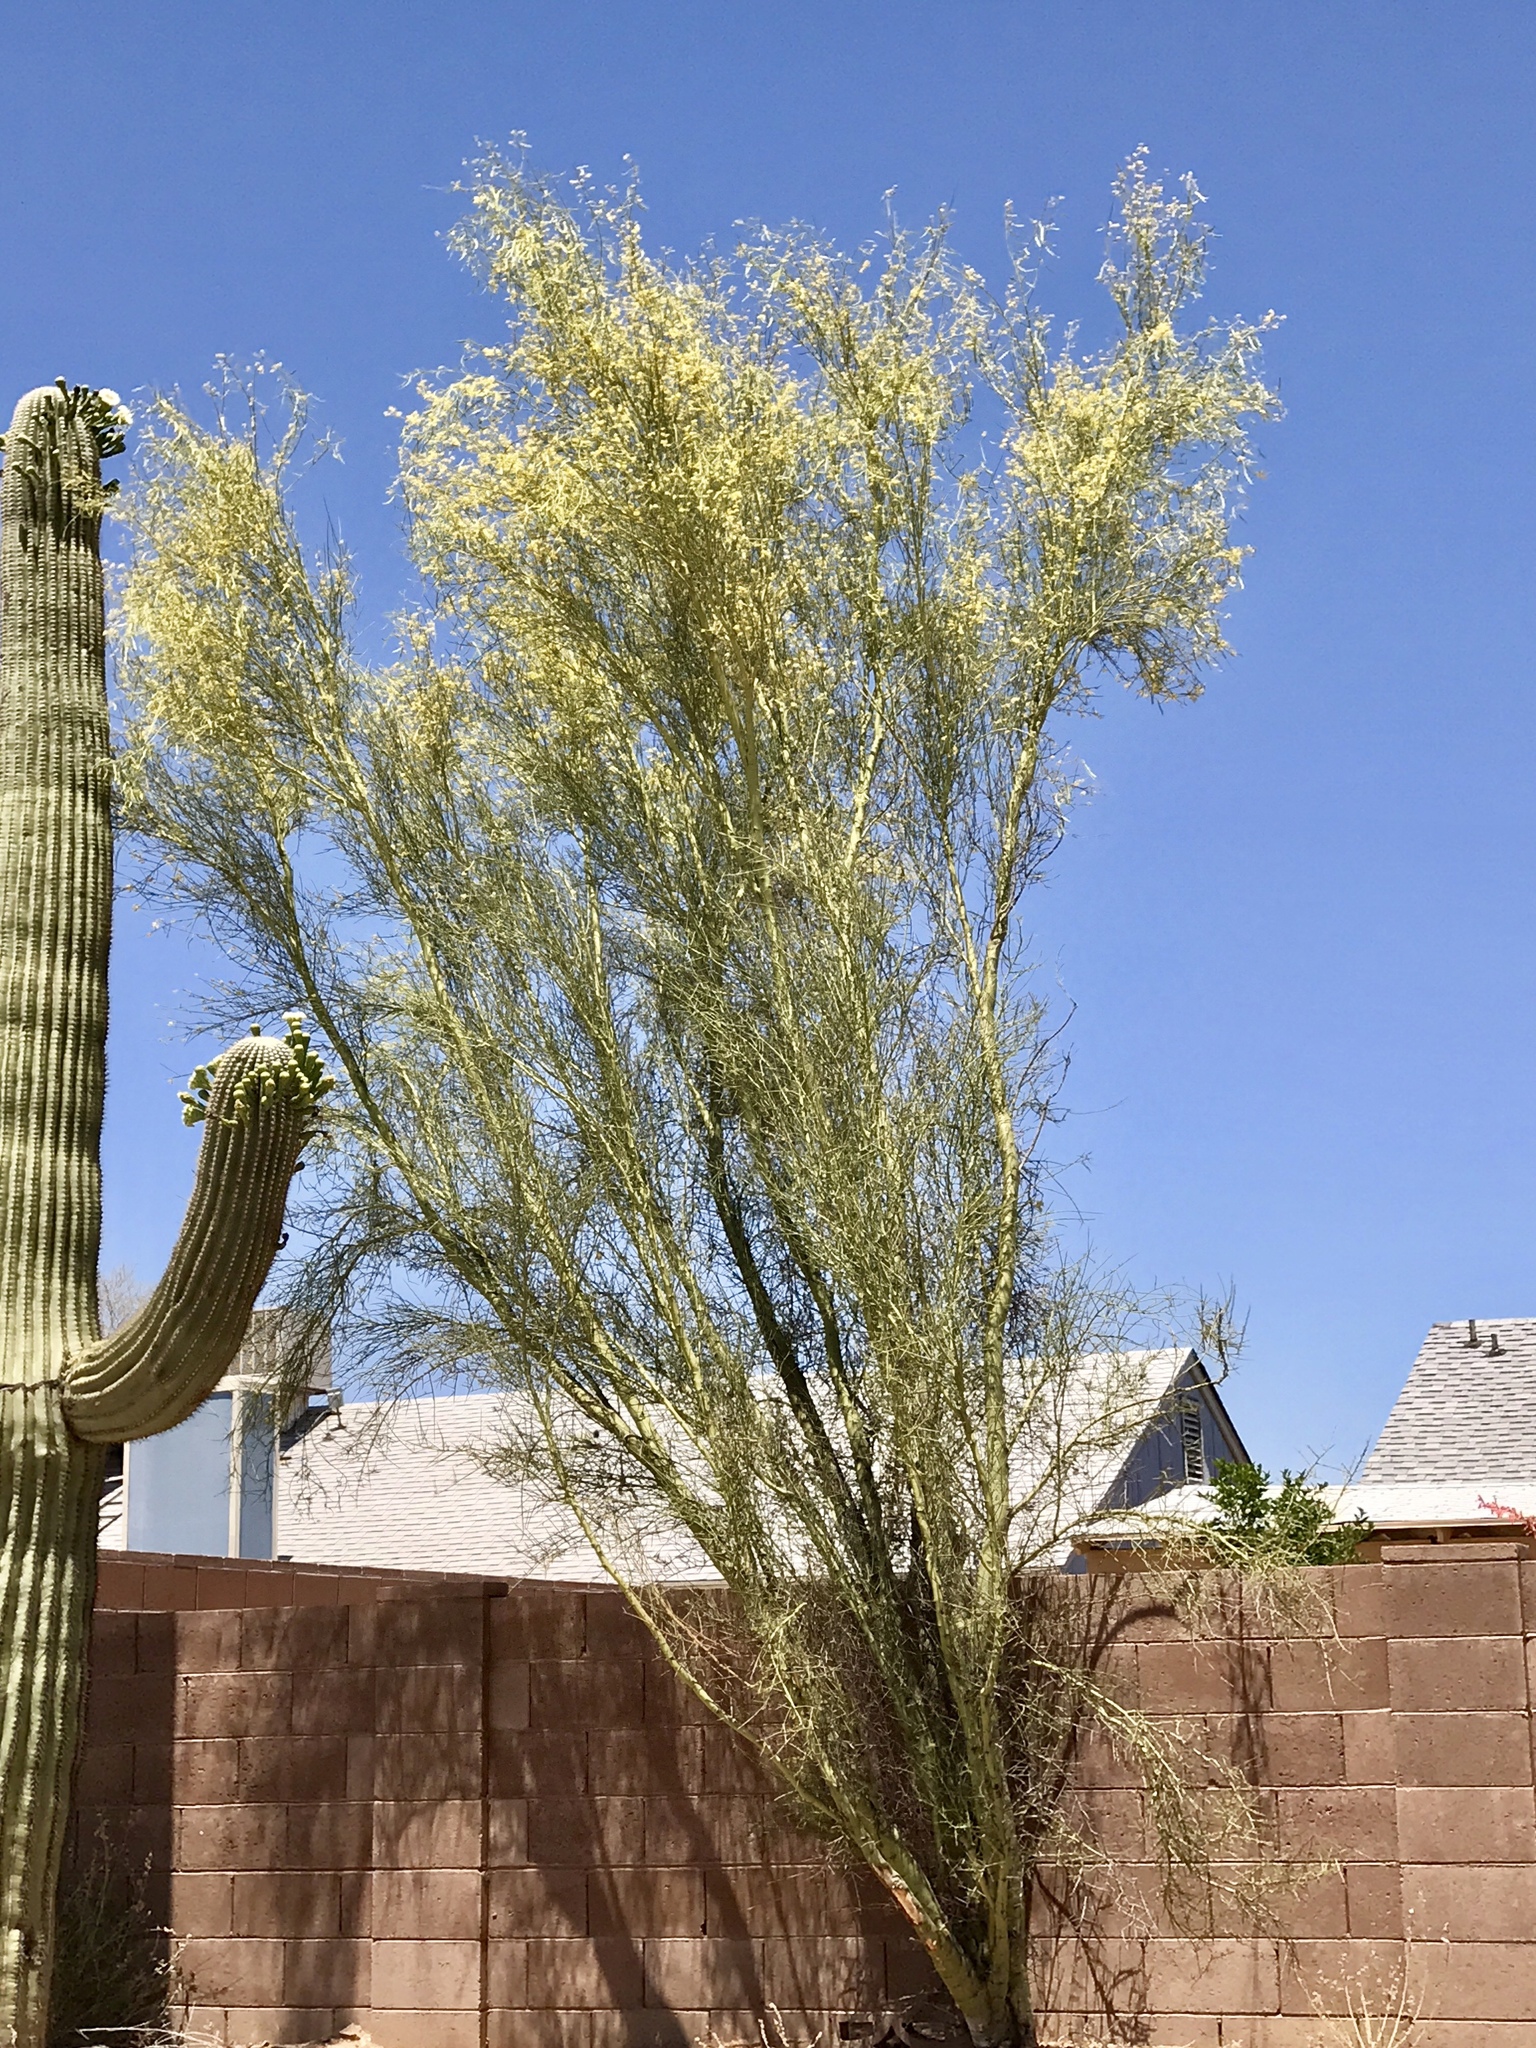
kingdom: Plantae
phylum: Tracheophyta
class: Magnoliopsida
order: Fabales
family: Fabaceae
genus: Parkinsonia
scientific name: Parkinsonia florida
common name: Blue paloverde
